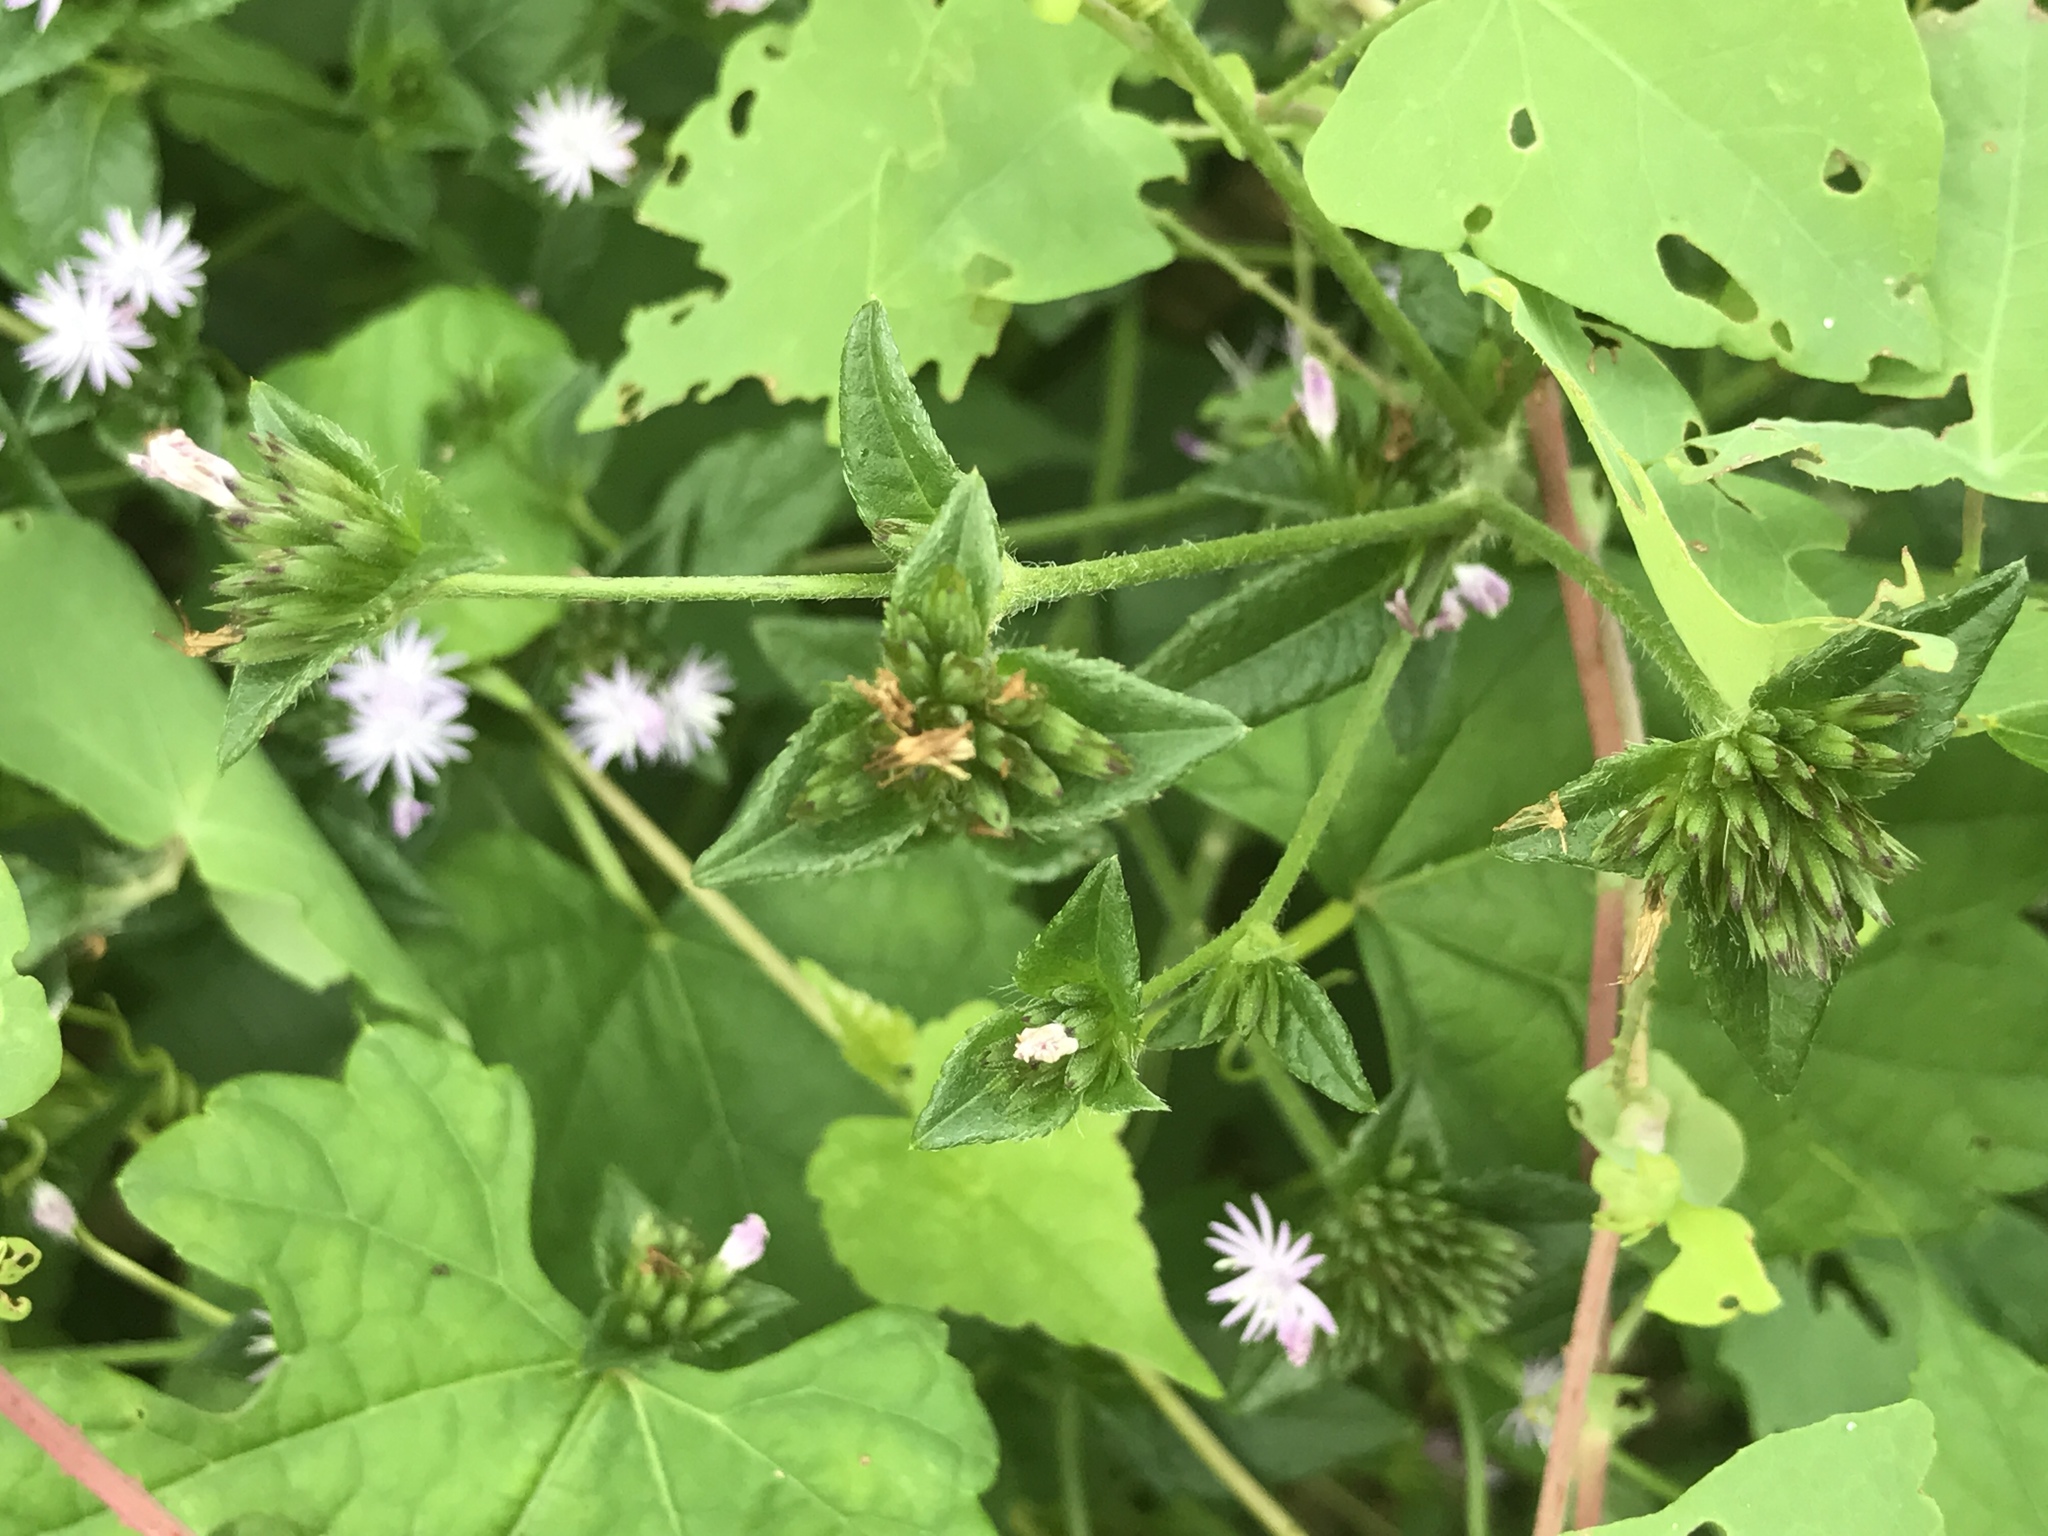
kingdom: Plantae
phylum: Tracheophyta
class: Magnoliopsida
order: Asterales
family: Asteraceae
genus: Elephantopus
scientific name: Elephantopus carolinianus
